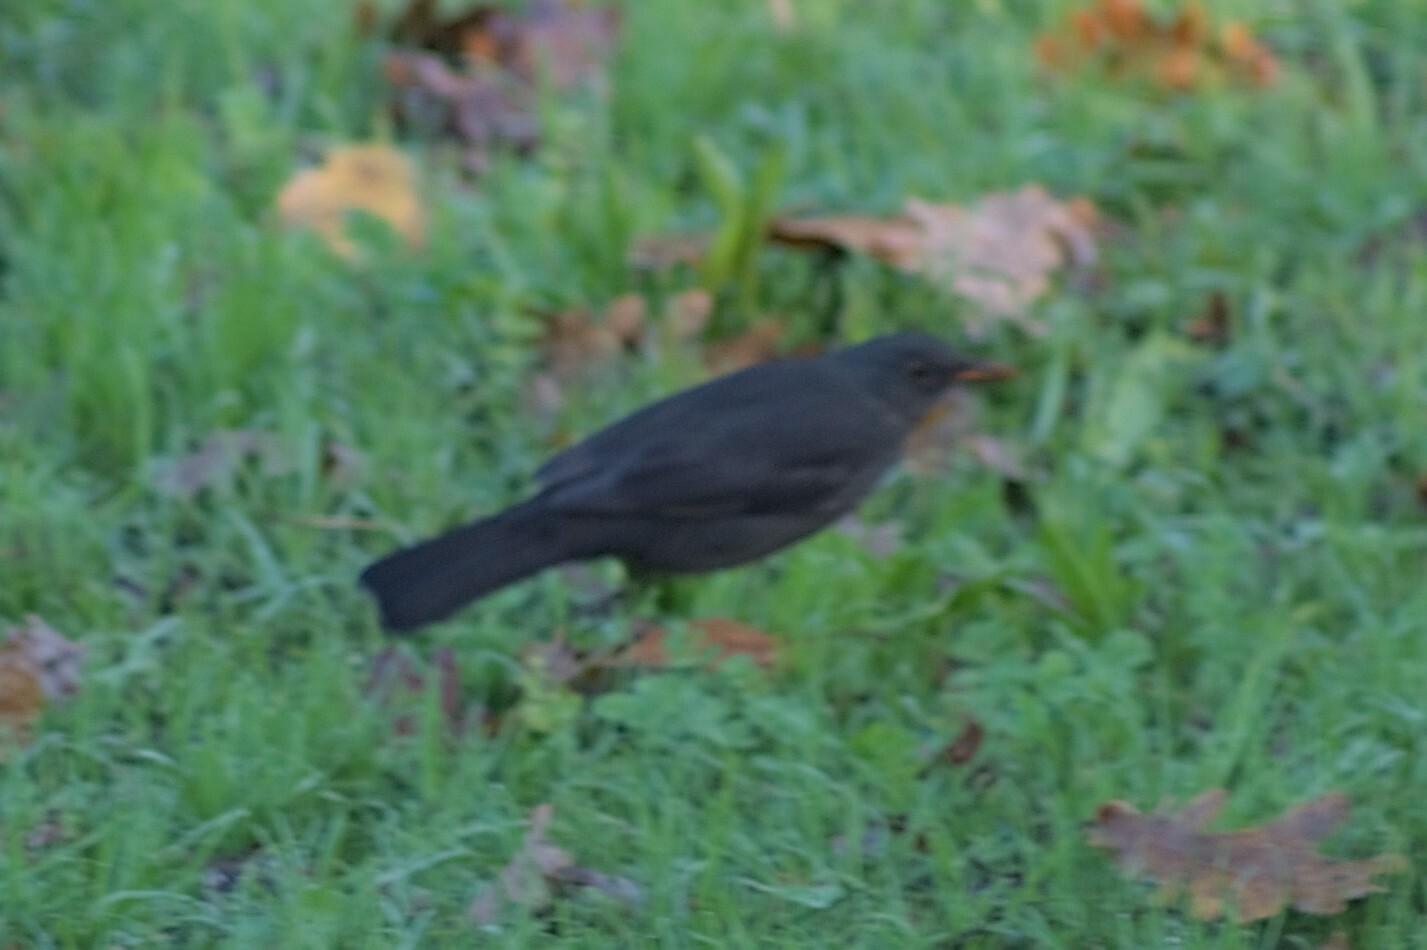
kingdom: Animalia
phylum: Chordata
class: Aves
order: Passeriformes
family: Turdidae
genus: Turdus
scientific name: Turdus merula
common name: Common blackbird
